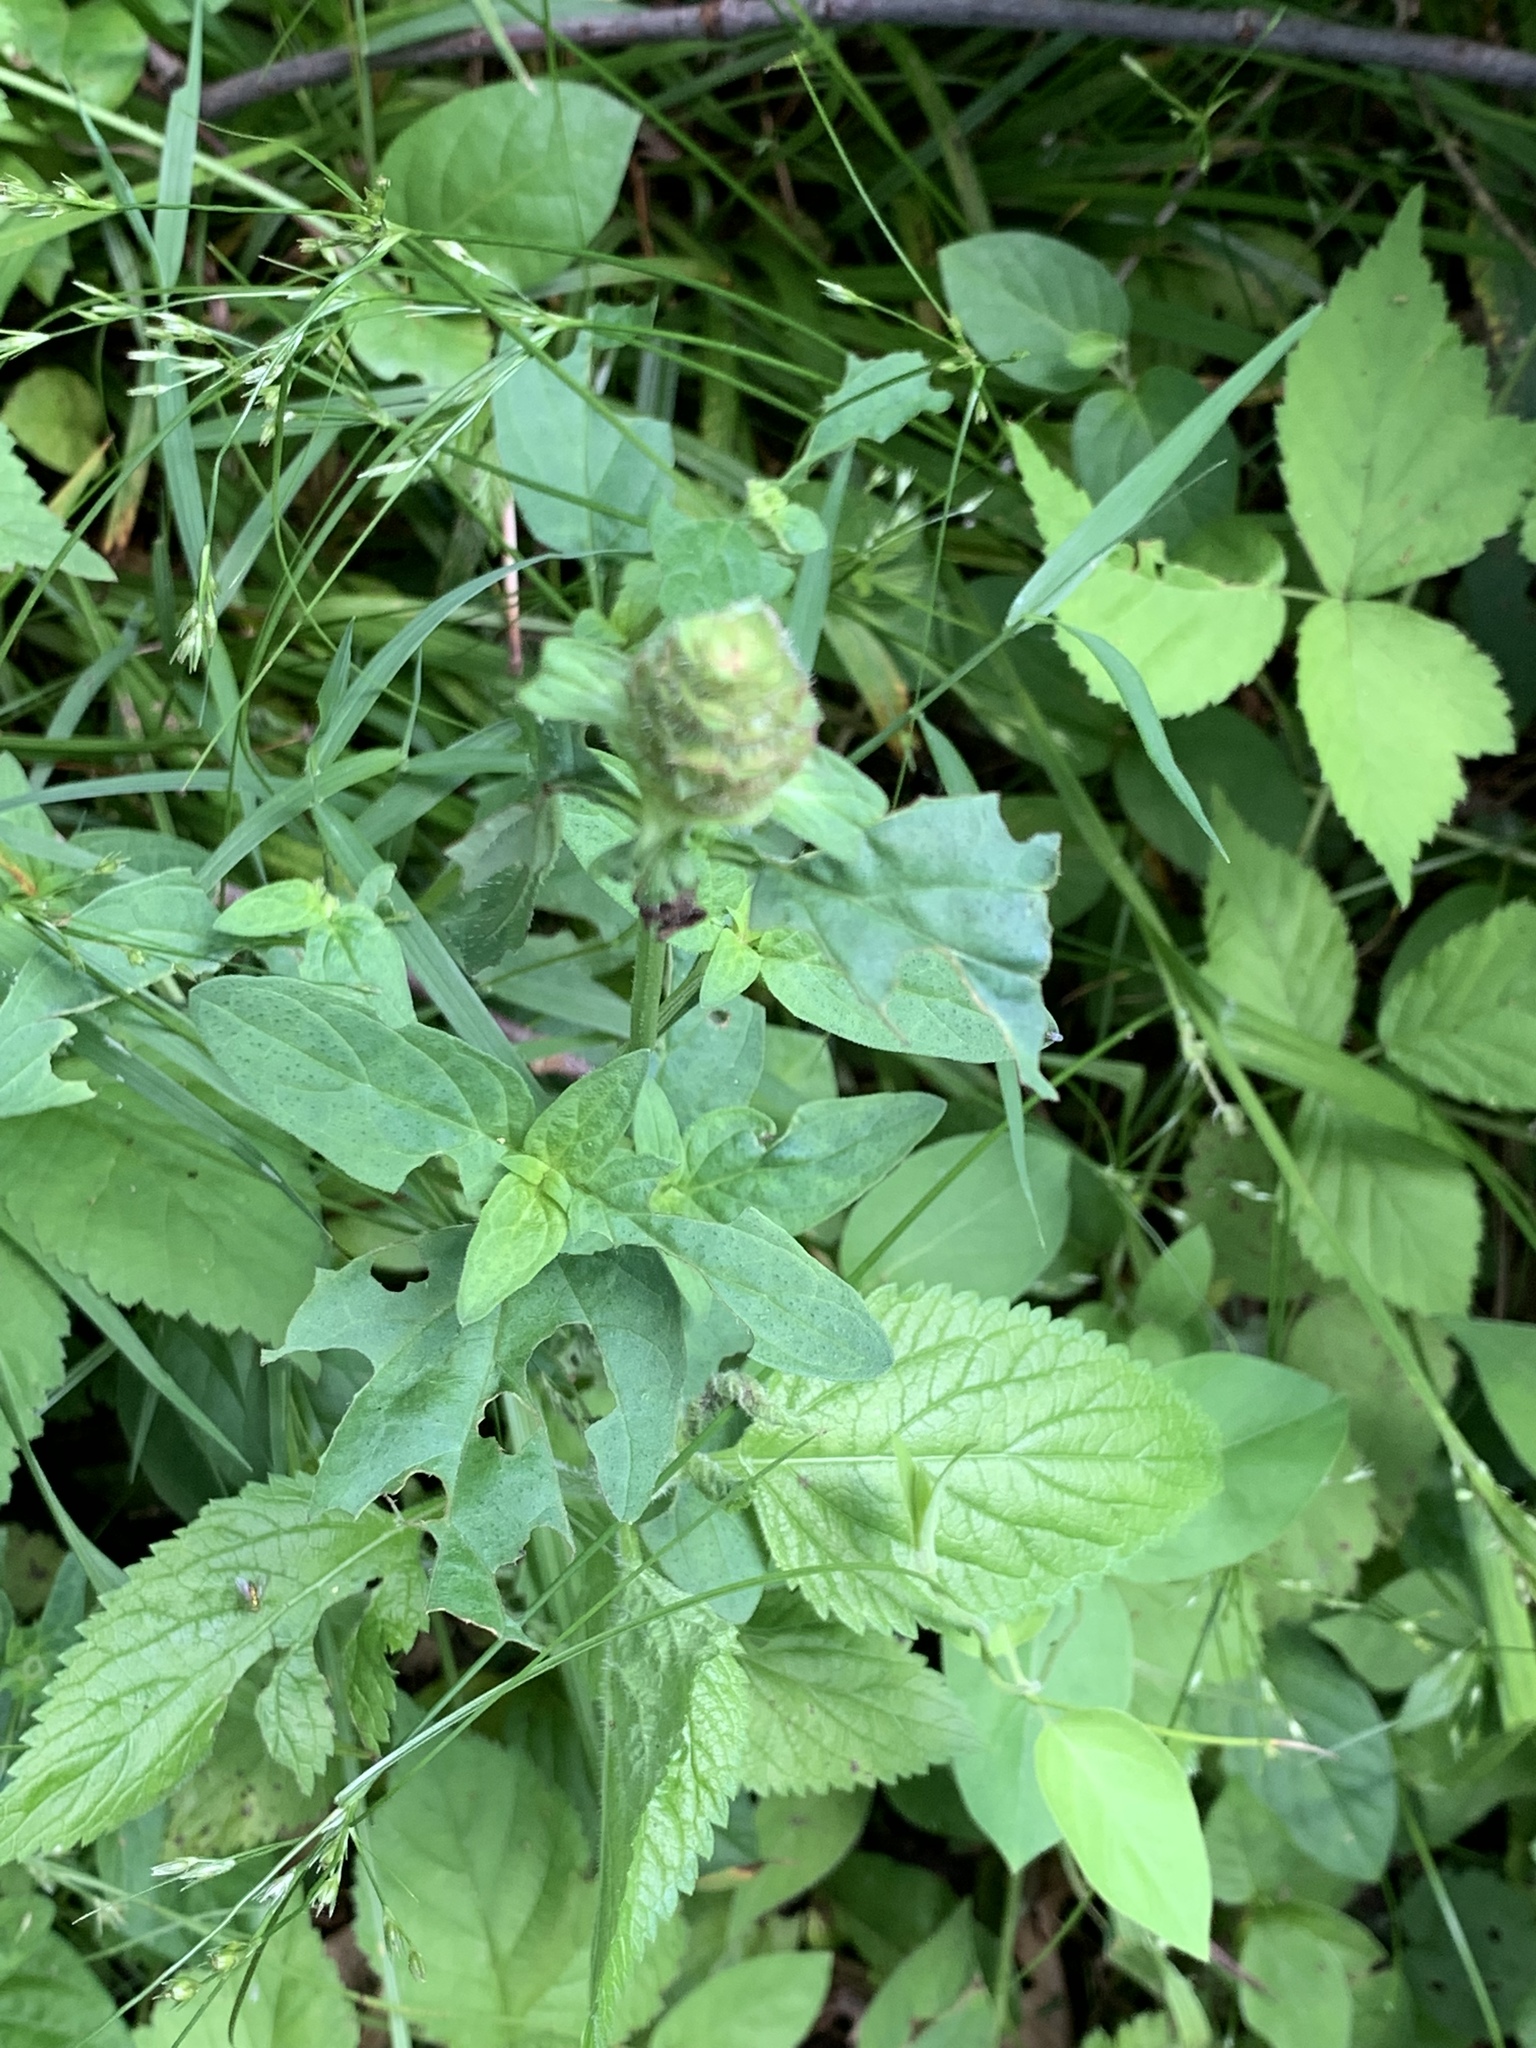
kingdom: Plantae
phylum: Tracheophyta
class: Magnoliopsida
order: Lamiales
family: Lamiaceae
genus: Prunella
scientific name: Prunella vulgaris
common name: Heal-all
